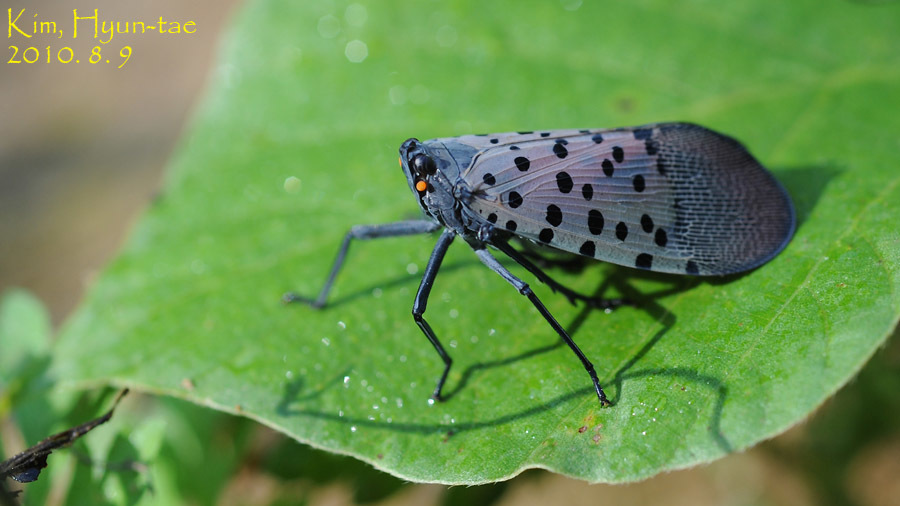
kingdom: Animalia
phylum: Arthropoda
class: Insecta
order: Hemiptera
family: Fulgoridae
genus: Lycorma
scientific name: Lycorma delicatula
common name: Spotted lanternfly
